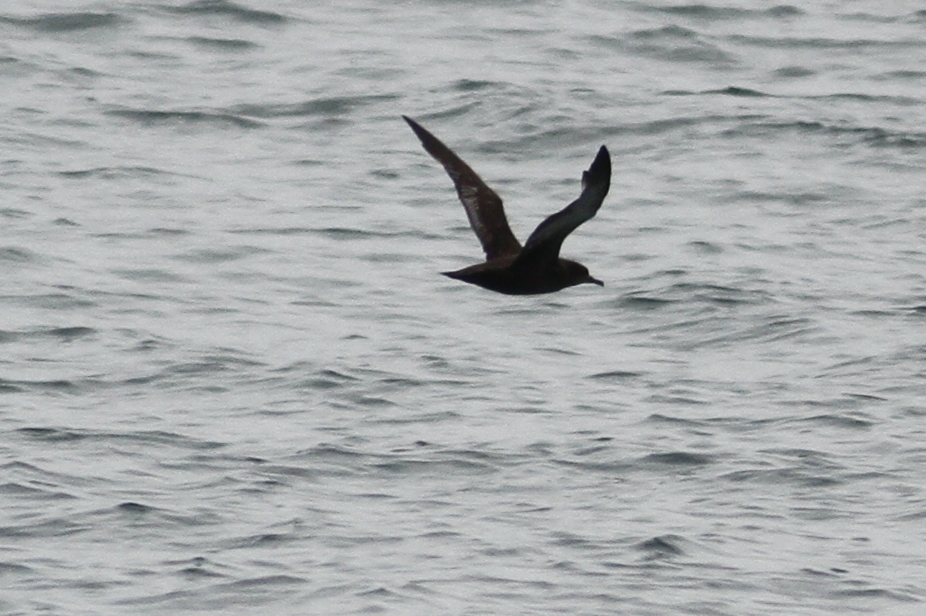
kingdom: Animalia
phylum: Chordata
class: Aves
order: Procellariiformes
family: Procellariidae
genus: Puffinus
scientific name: Puffinus griseus
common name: Sooty shearwater
